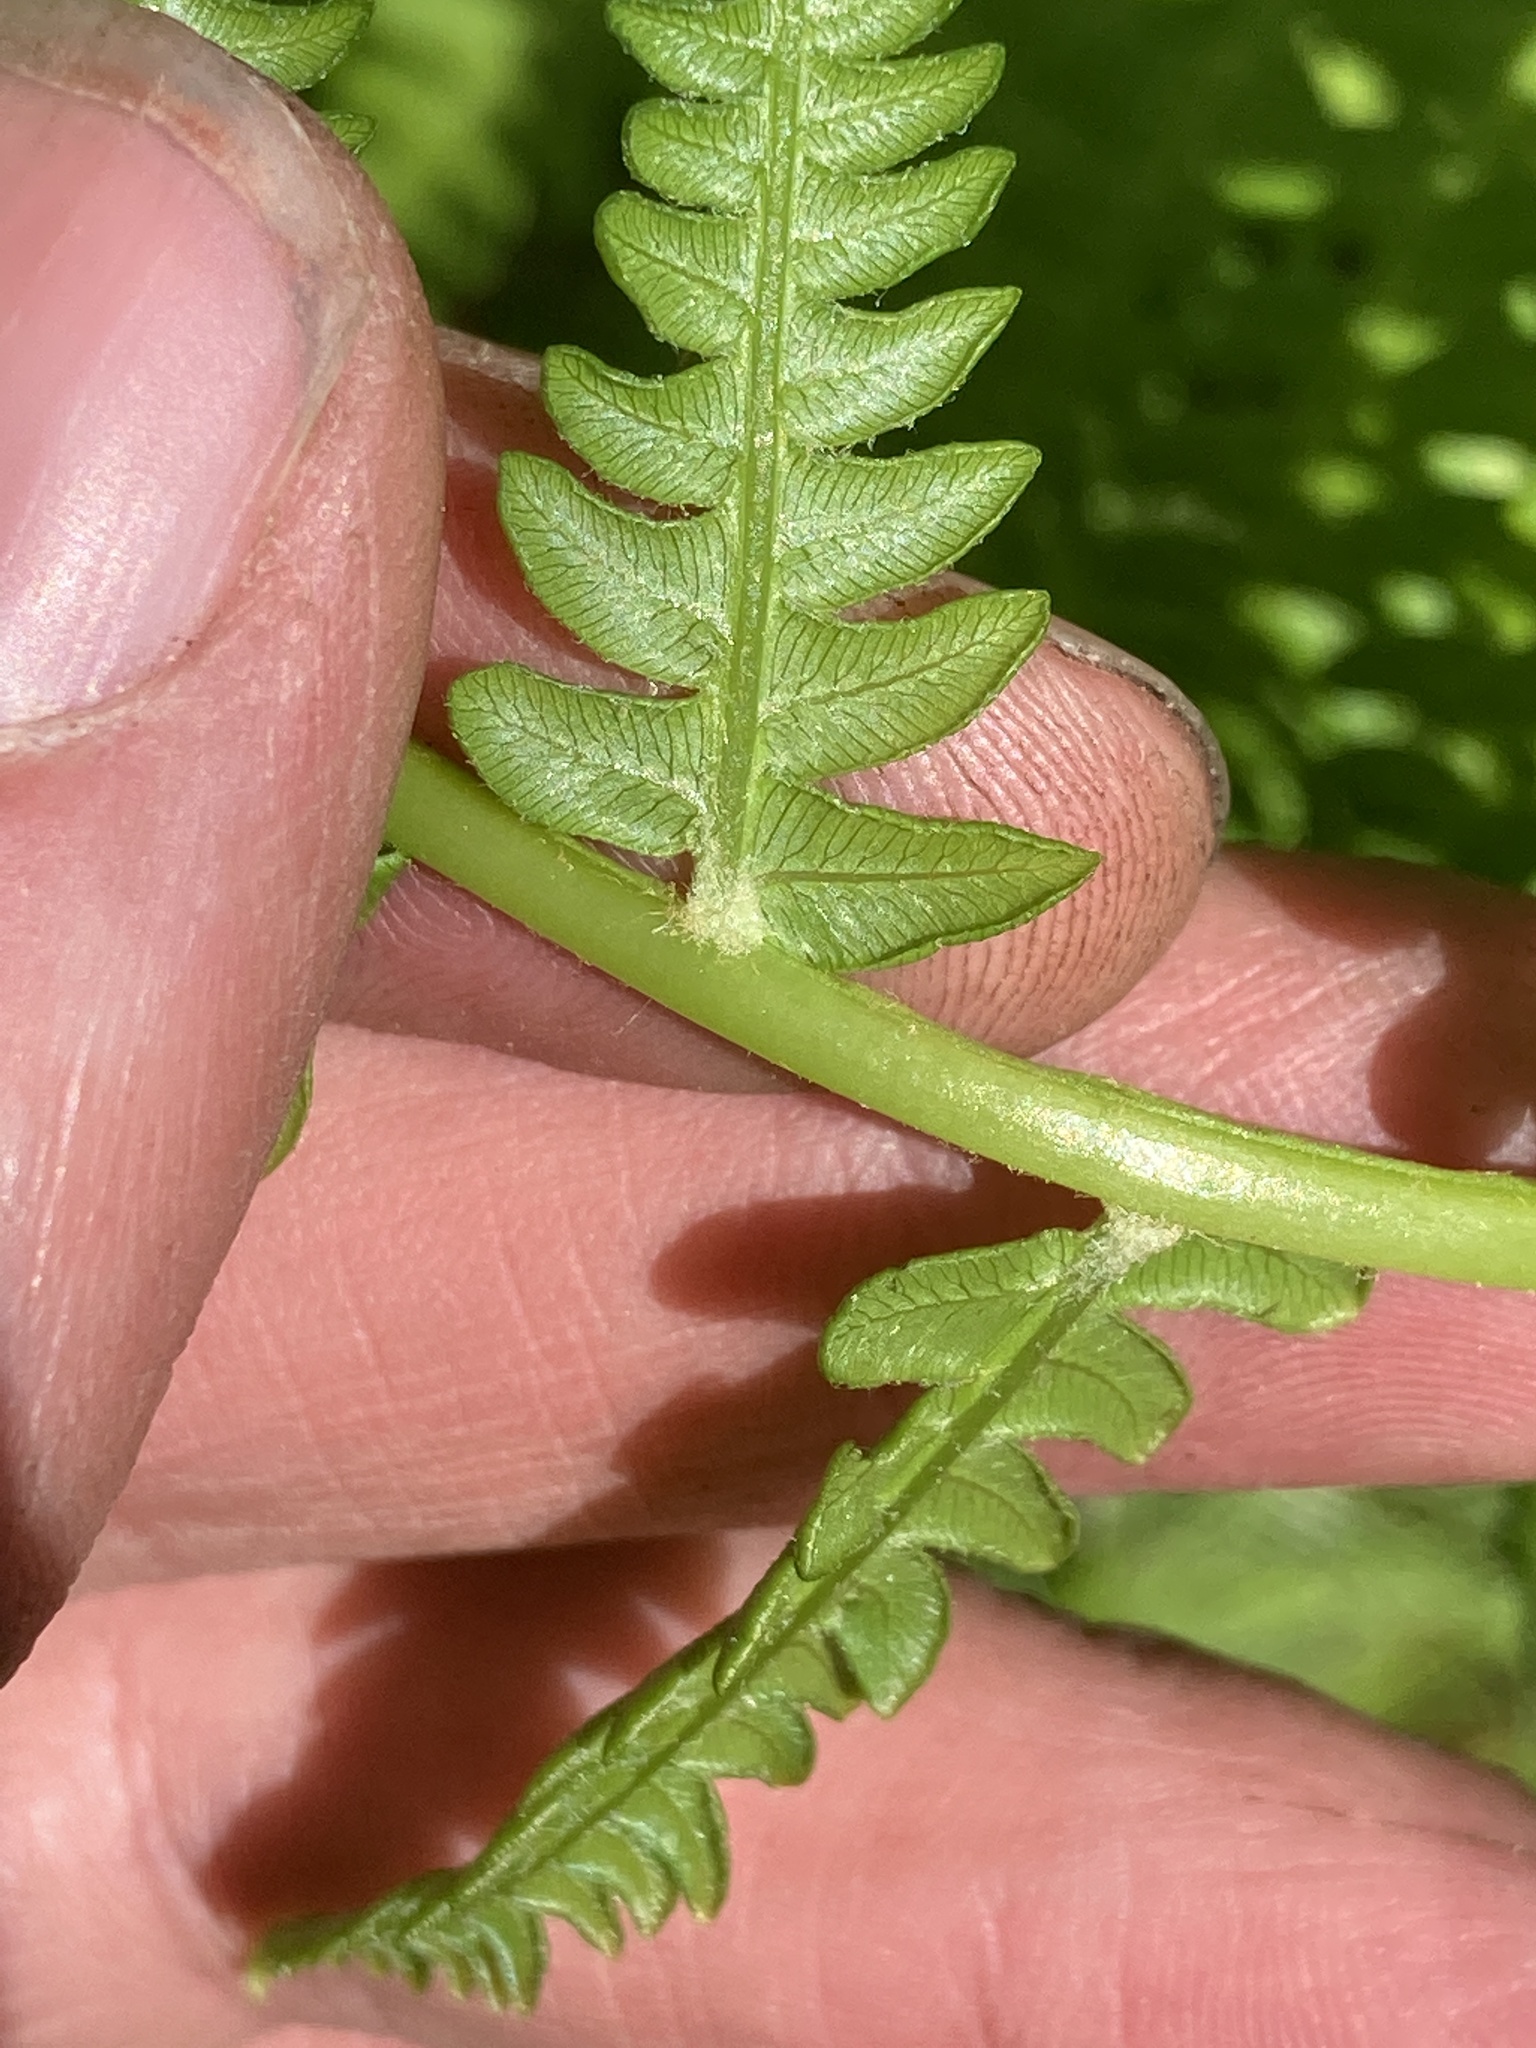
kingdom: Plantae
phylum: Tracheophyta
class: Polypodiopsida
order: Osmundales
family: Osmundaceae
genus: Osmundastrum
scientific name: Osmundastrum cinnamomeum
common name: Cinnamon fern
